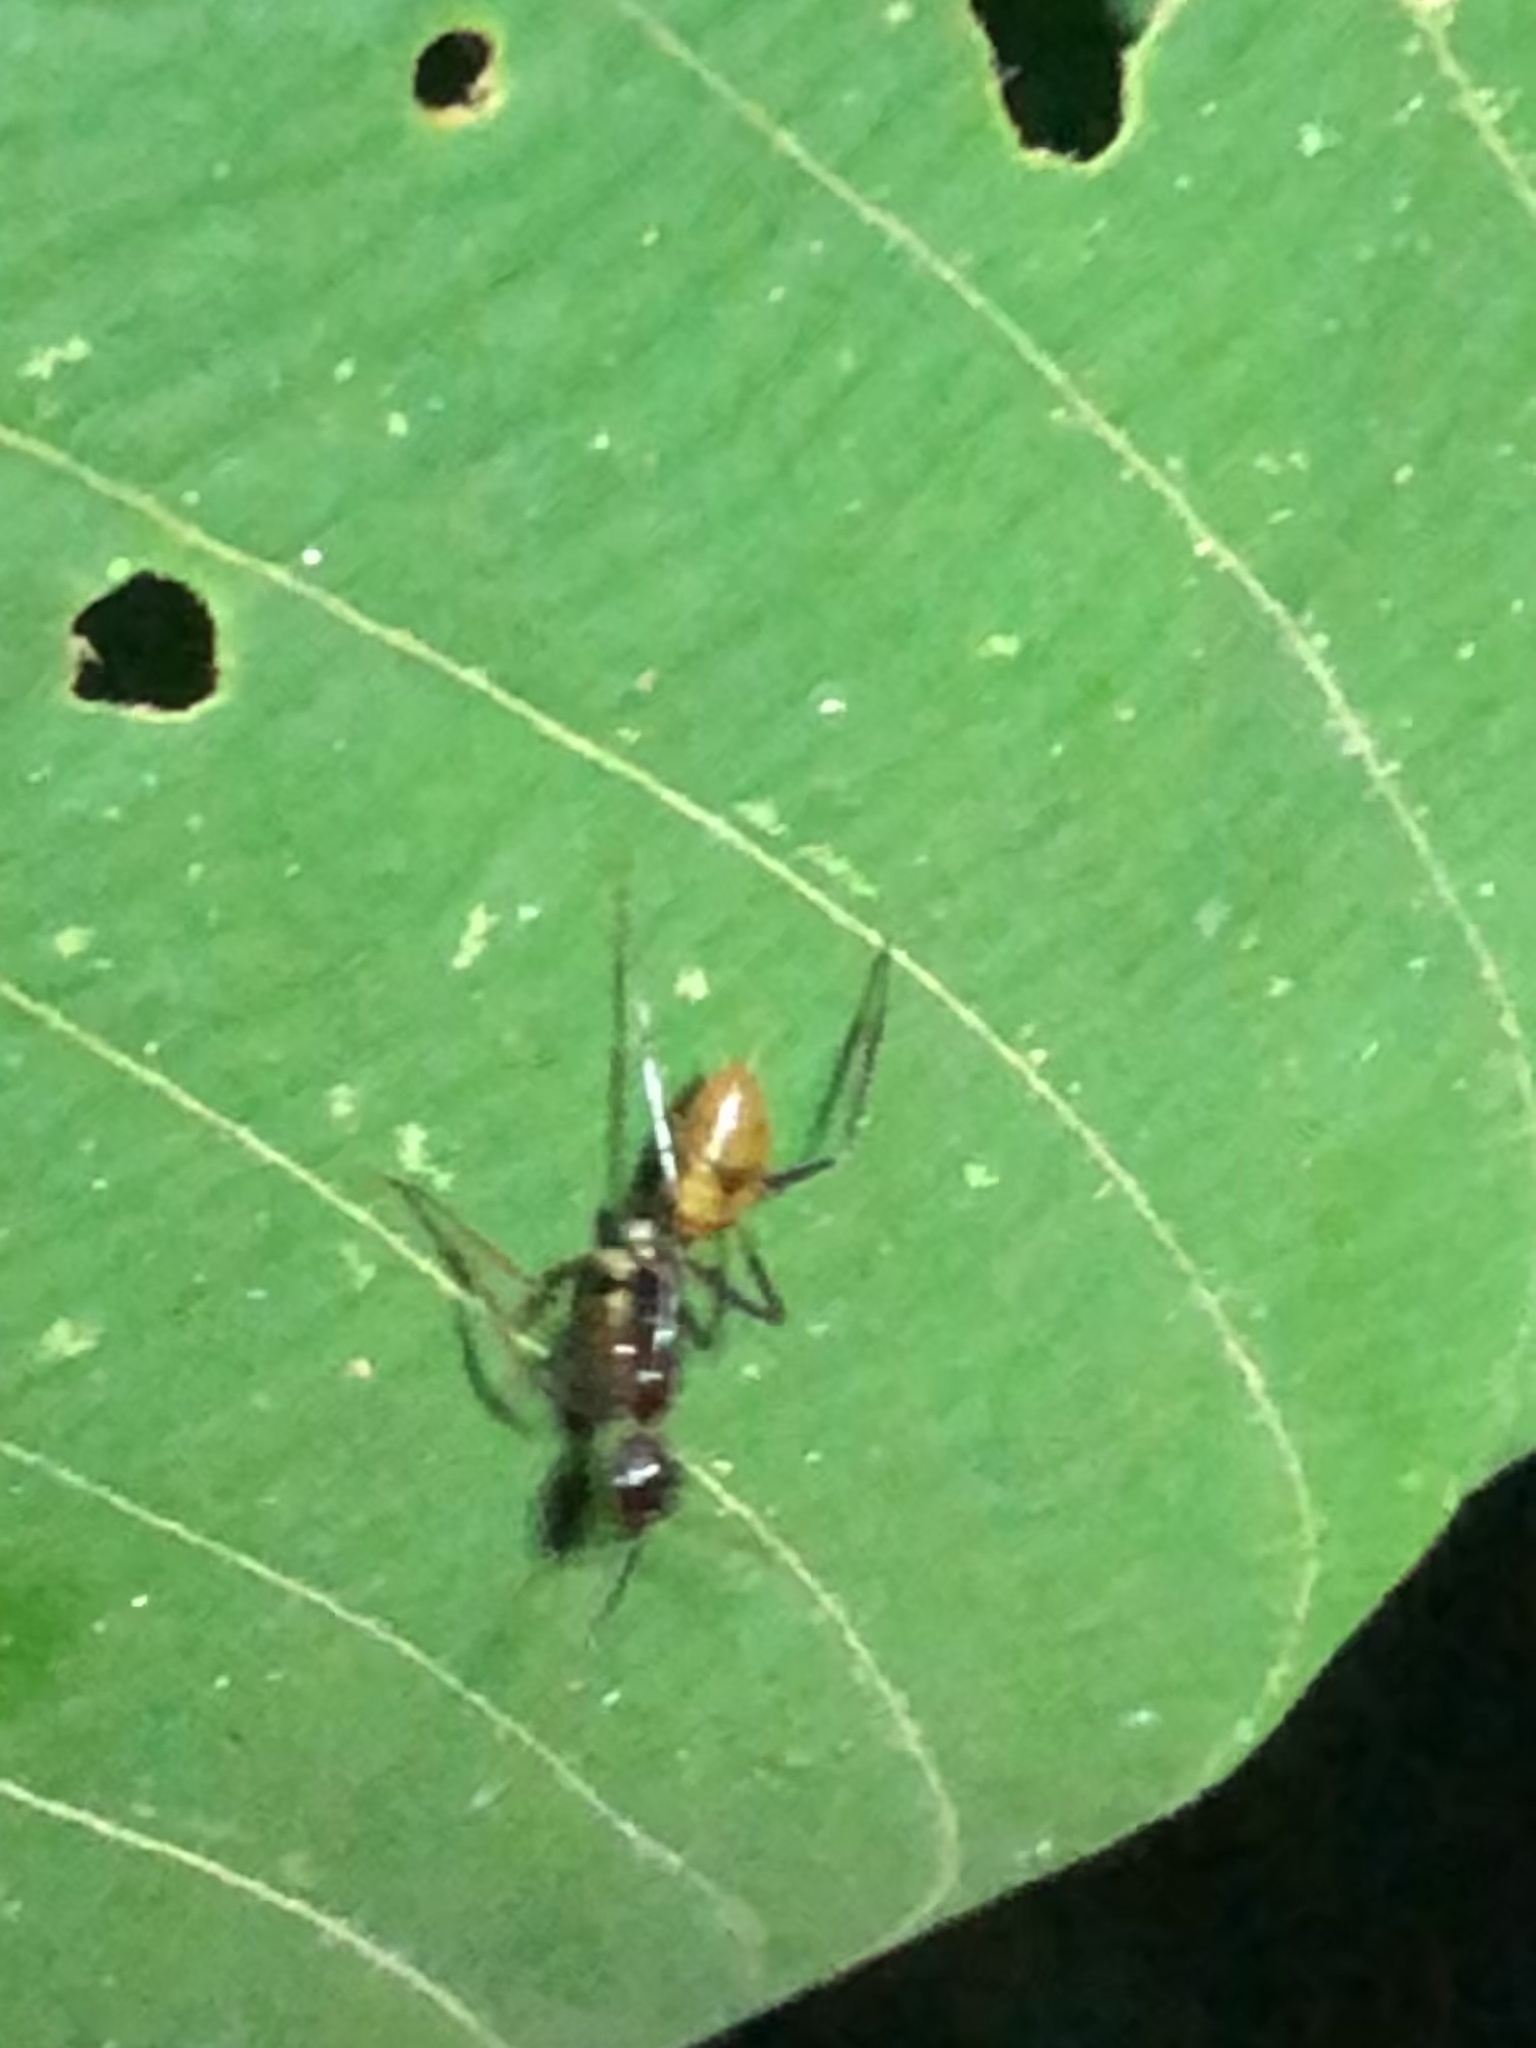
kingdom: Animalia
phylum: Arthropoda
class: Insecta
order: Hymenoptera
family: Formicidae
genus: Camponotus
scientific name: Camponotus atriceps
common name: Florida carpenter ant
